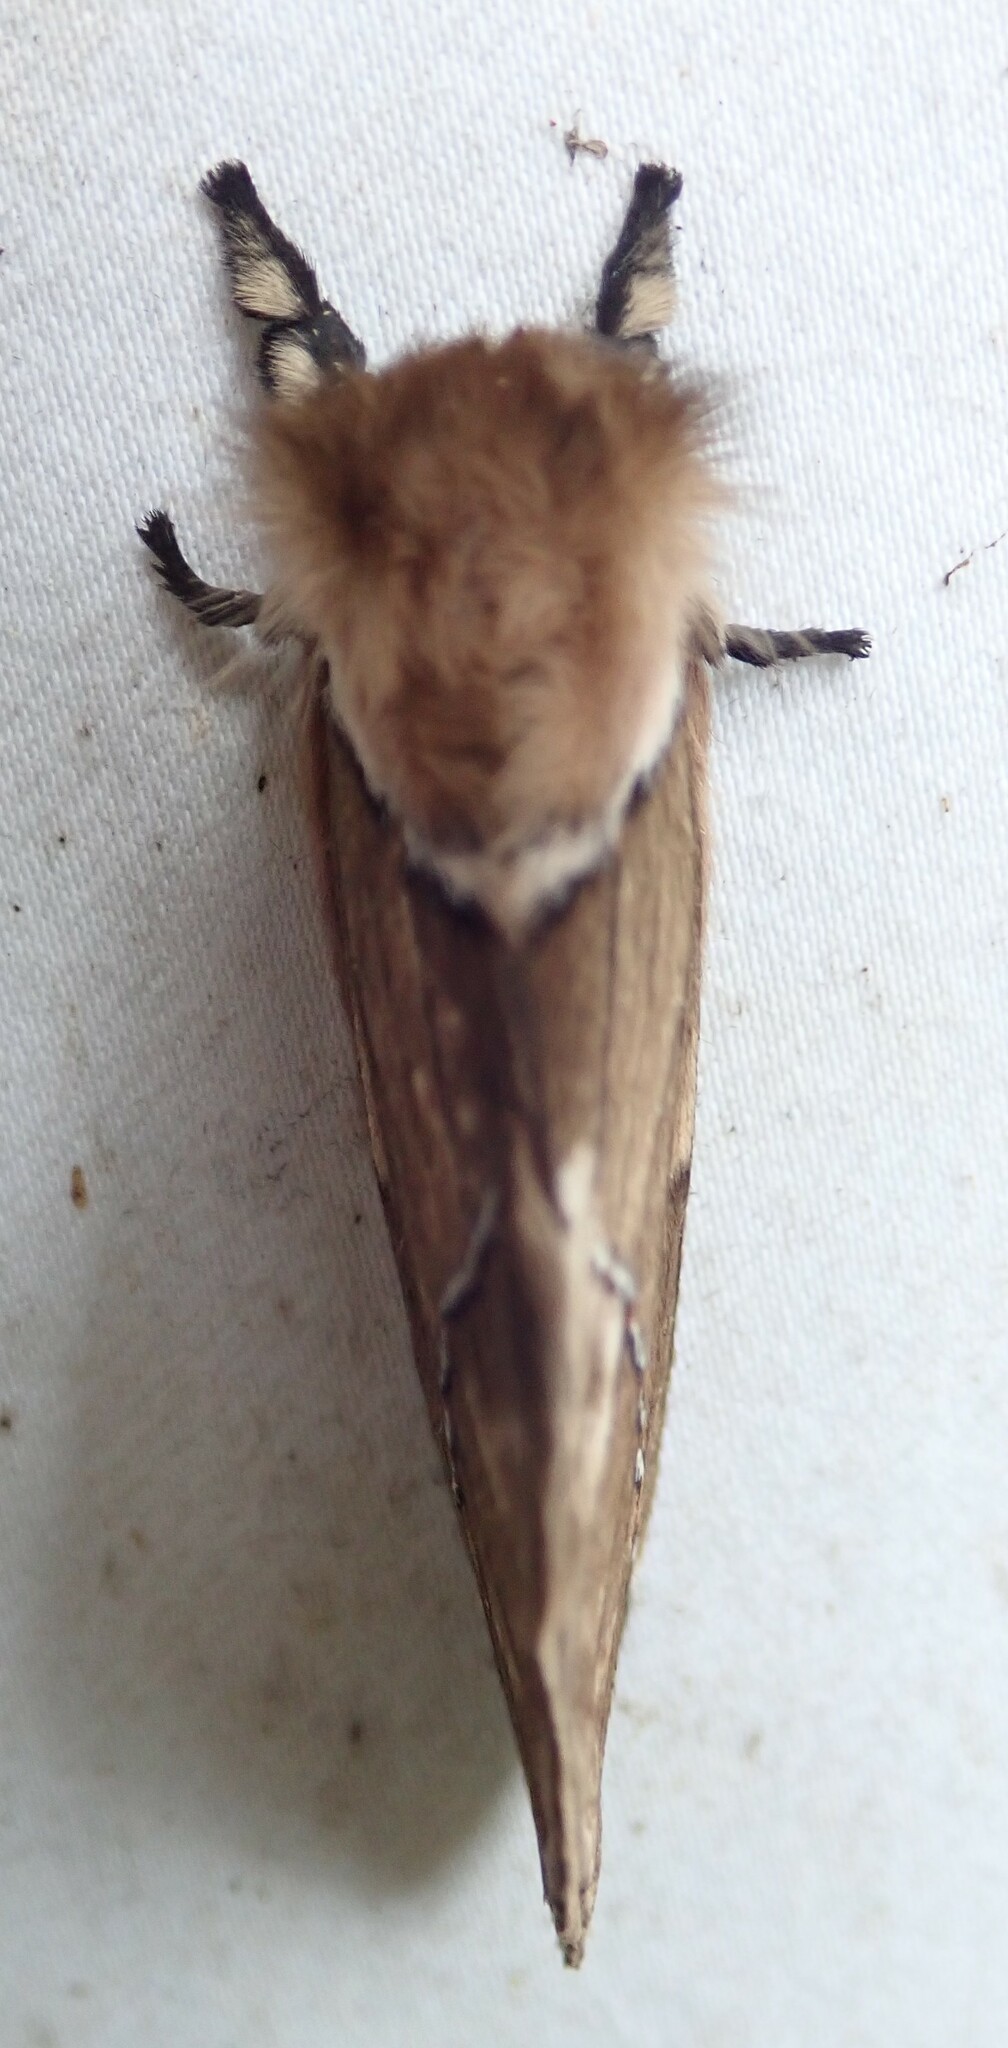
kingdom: Animalia
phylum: Arthropoda
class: Insecta
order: Lepidoptera
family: Saturniidae
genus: Pseudodirphia
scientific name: Pseudodirphia agis
